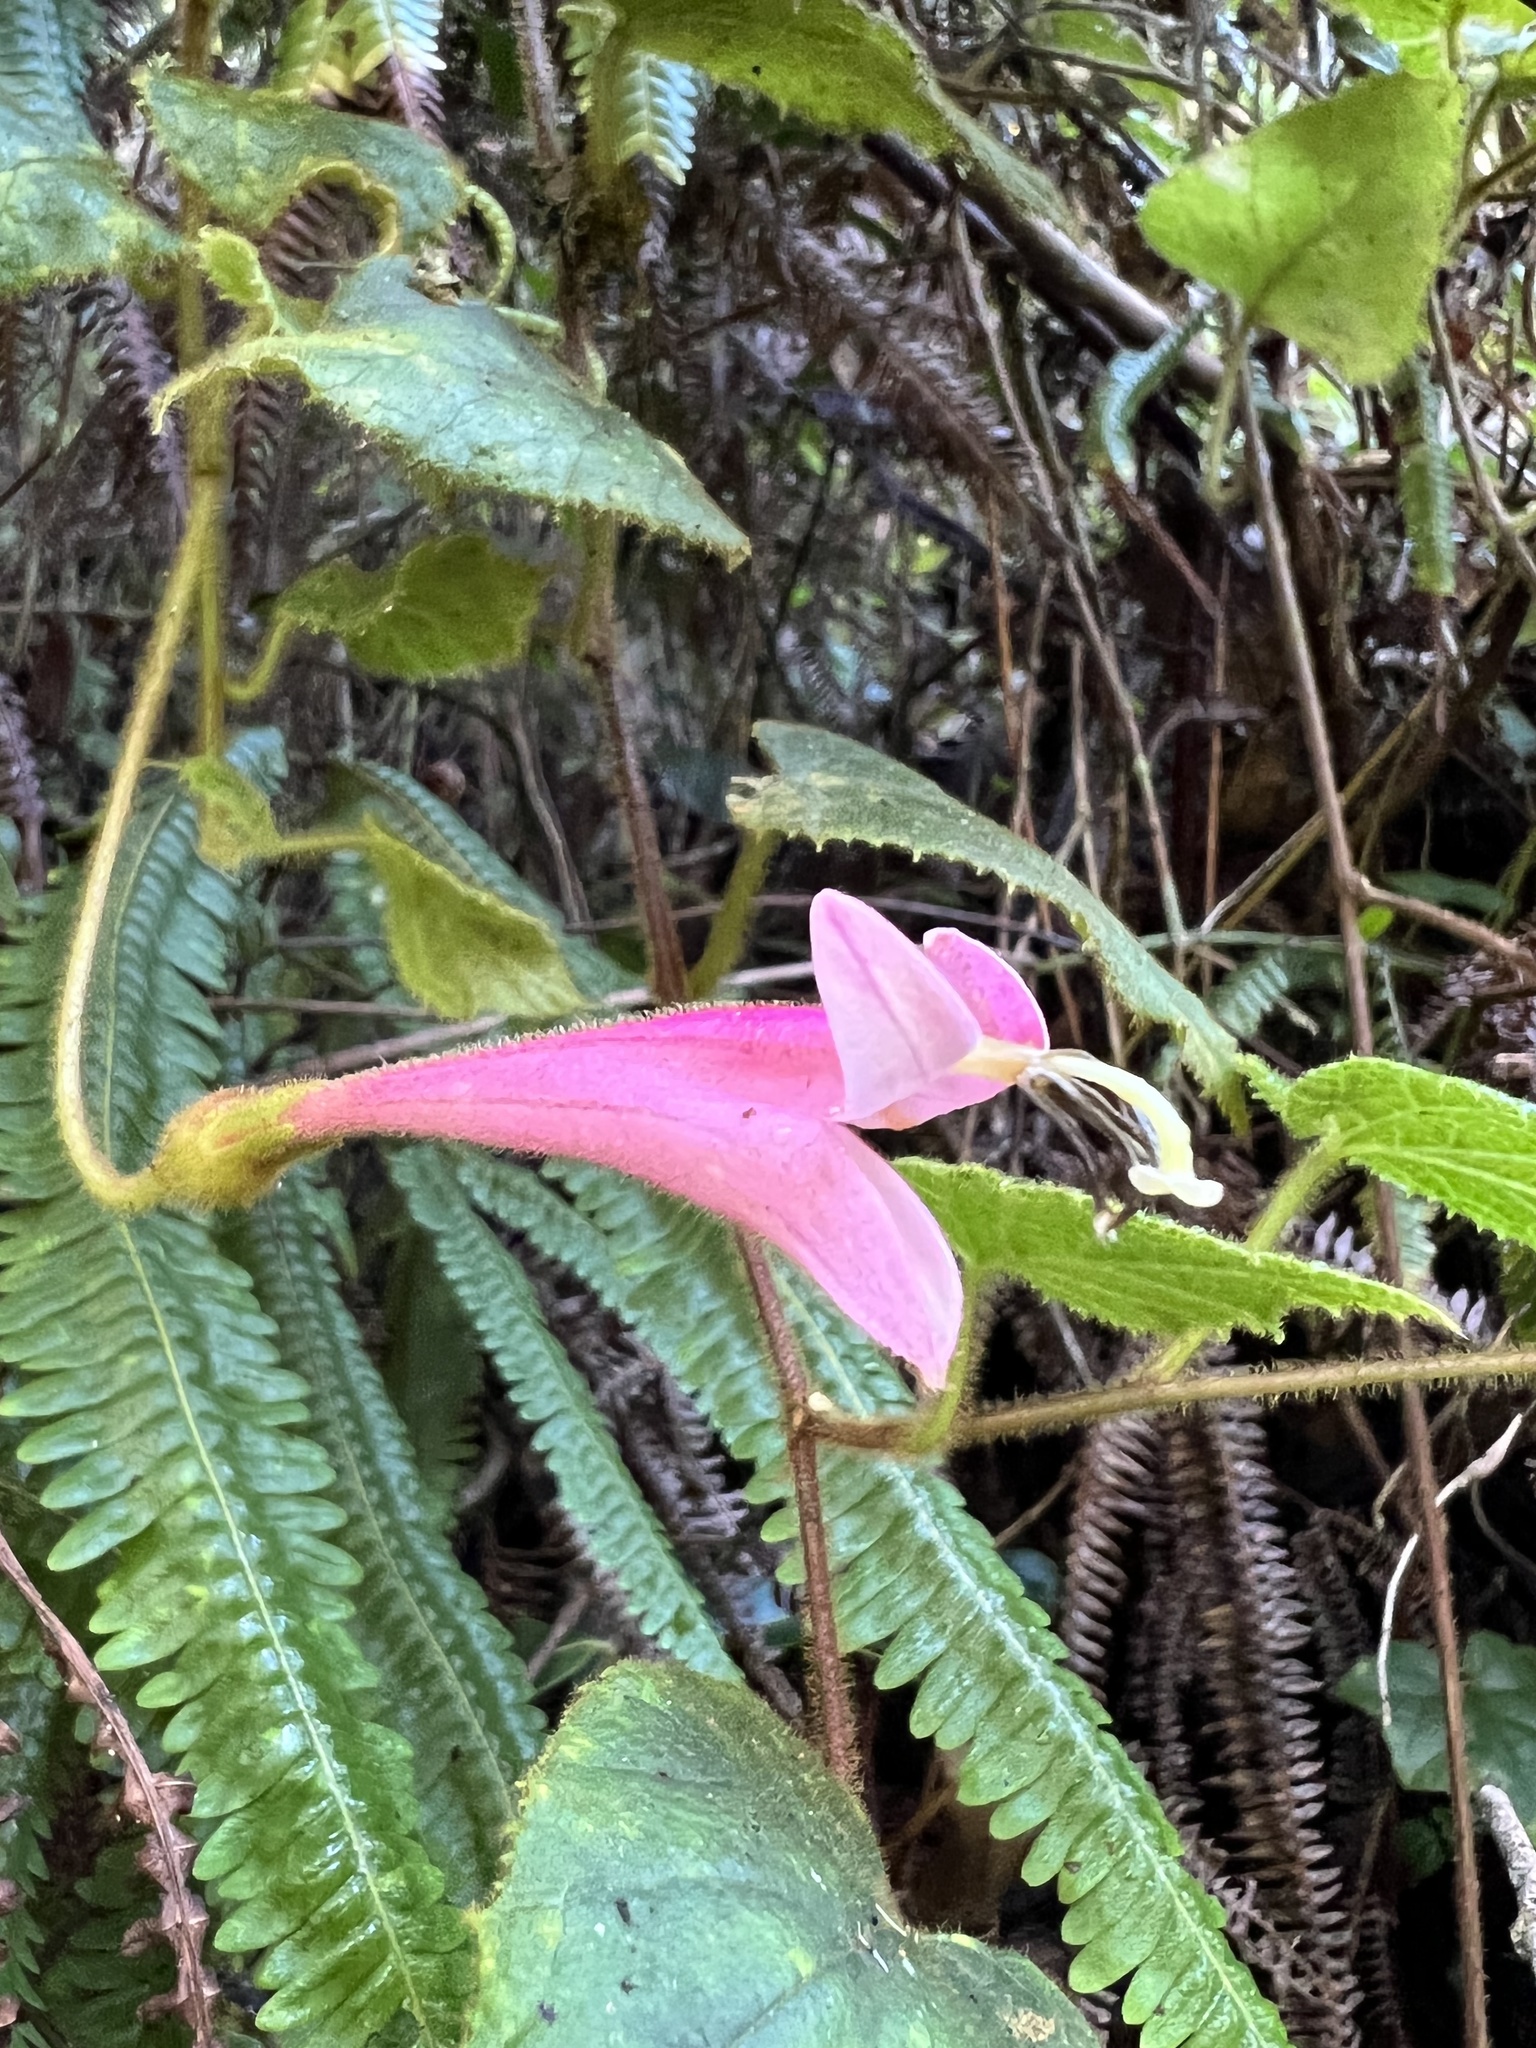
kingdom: Plantae
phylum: Tracheophyta
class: Magnoliopsida
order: Asterales
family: Campanulaceae
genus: Siphocampylus
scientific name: Siphocampylus benthamianus
